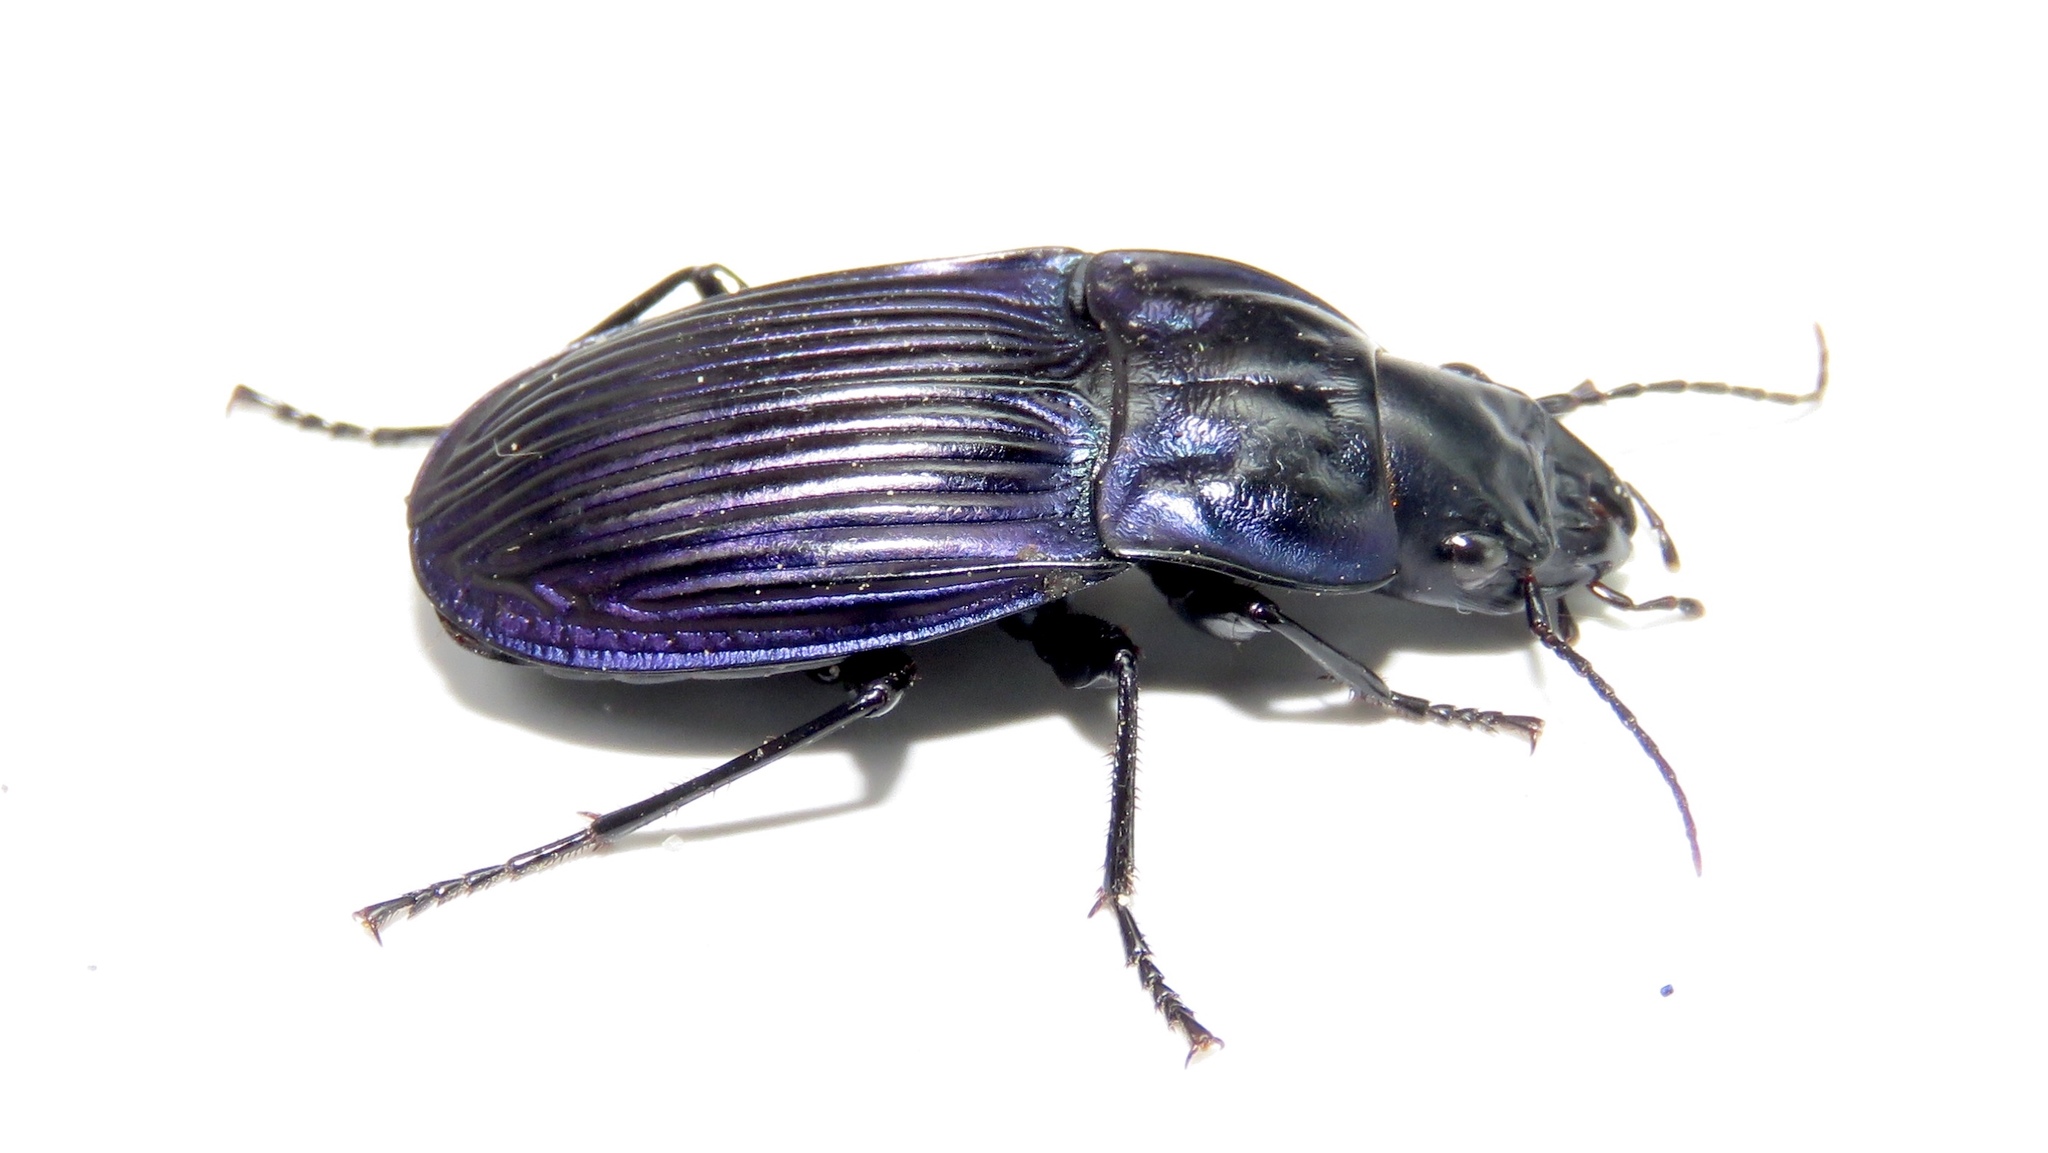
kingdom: Animalia
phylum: Arthropoda
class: Insecta
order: Coleoptera
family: Carabidae
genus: Dicaelus
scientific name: Dicaelus purpuratus
